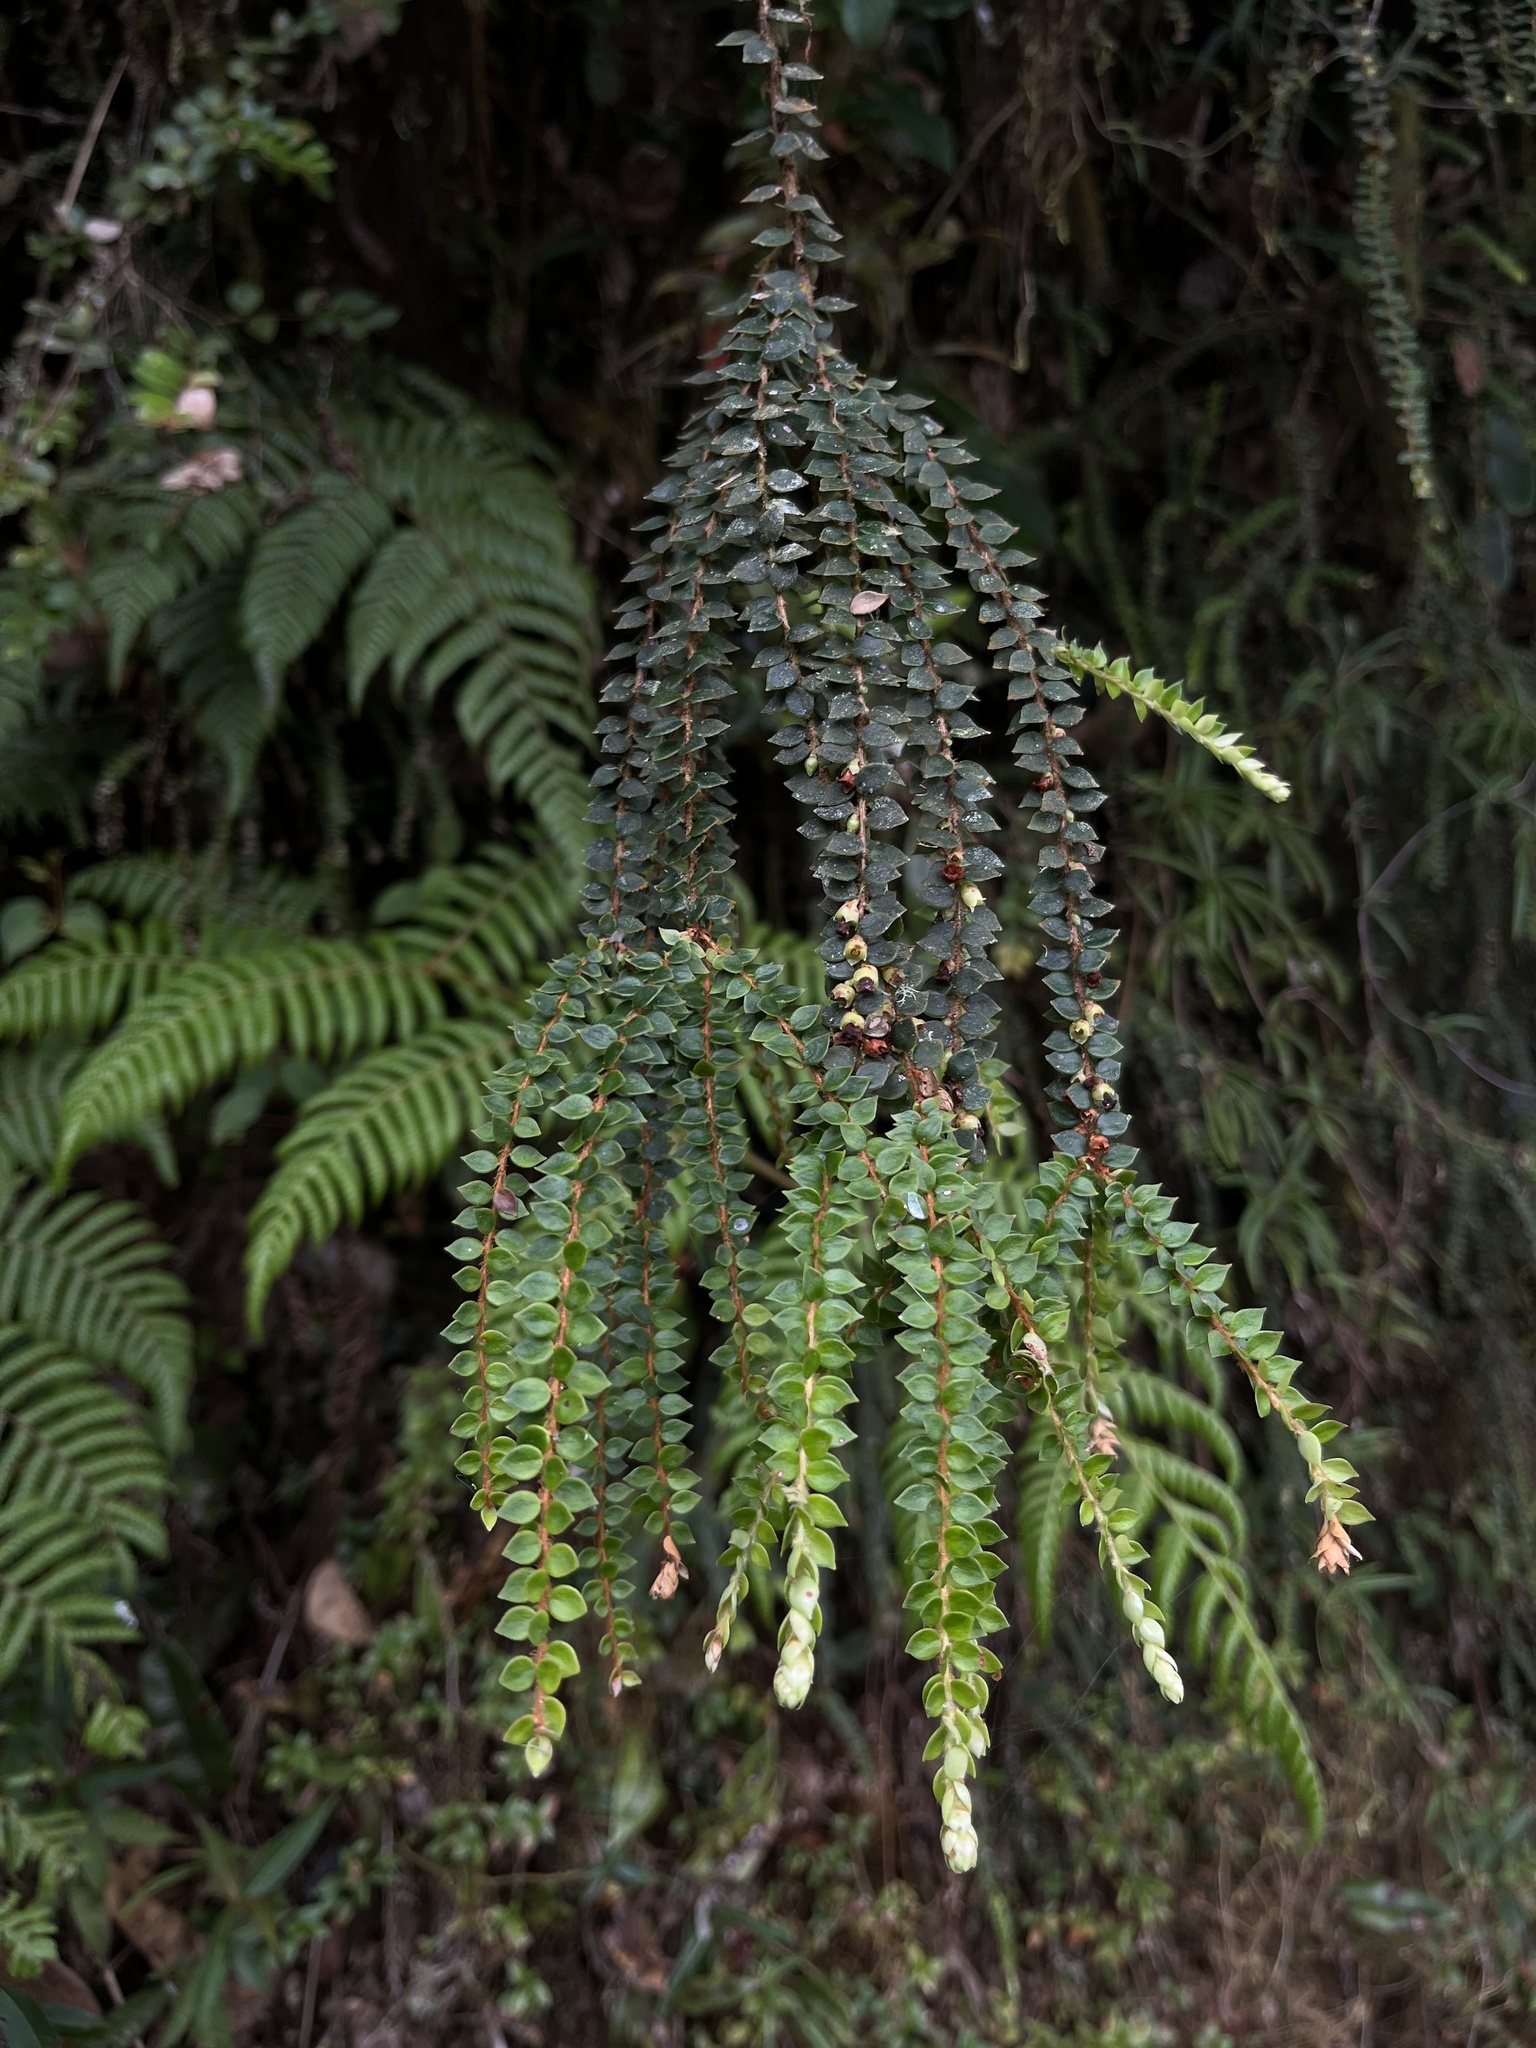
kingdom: Plantae
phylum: Tracheophyta
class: Magnoliopsida
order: Ericales
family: Ericaceae
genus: Disterigma
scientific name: Disterigma acuminatum
